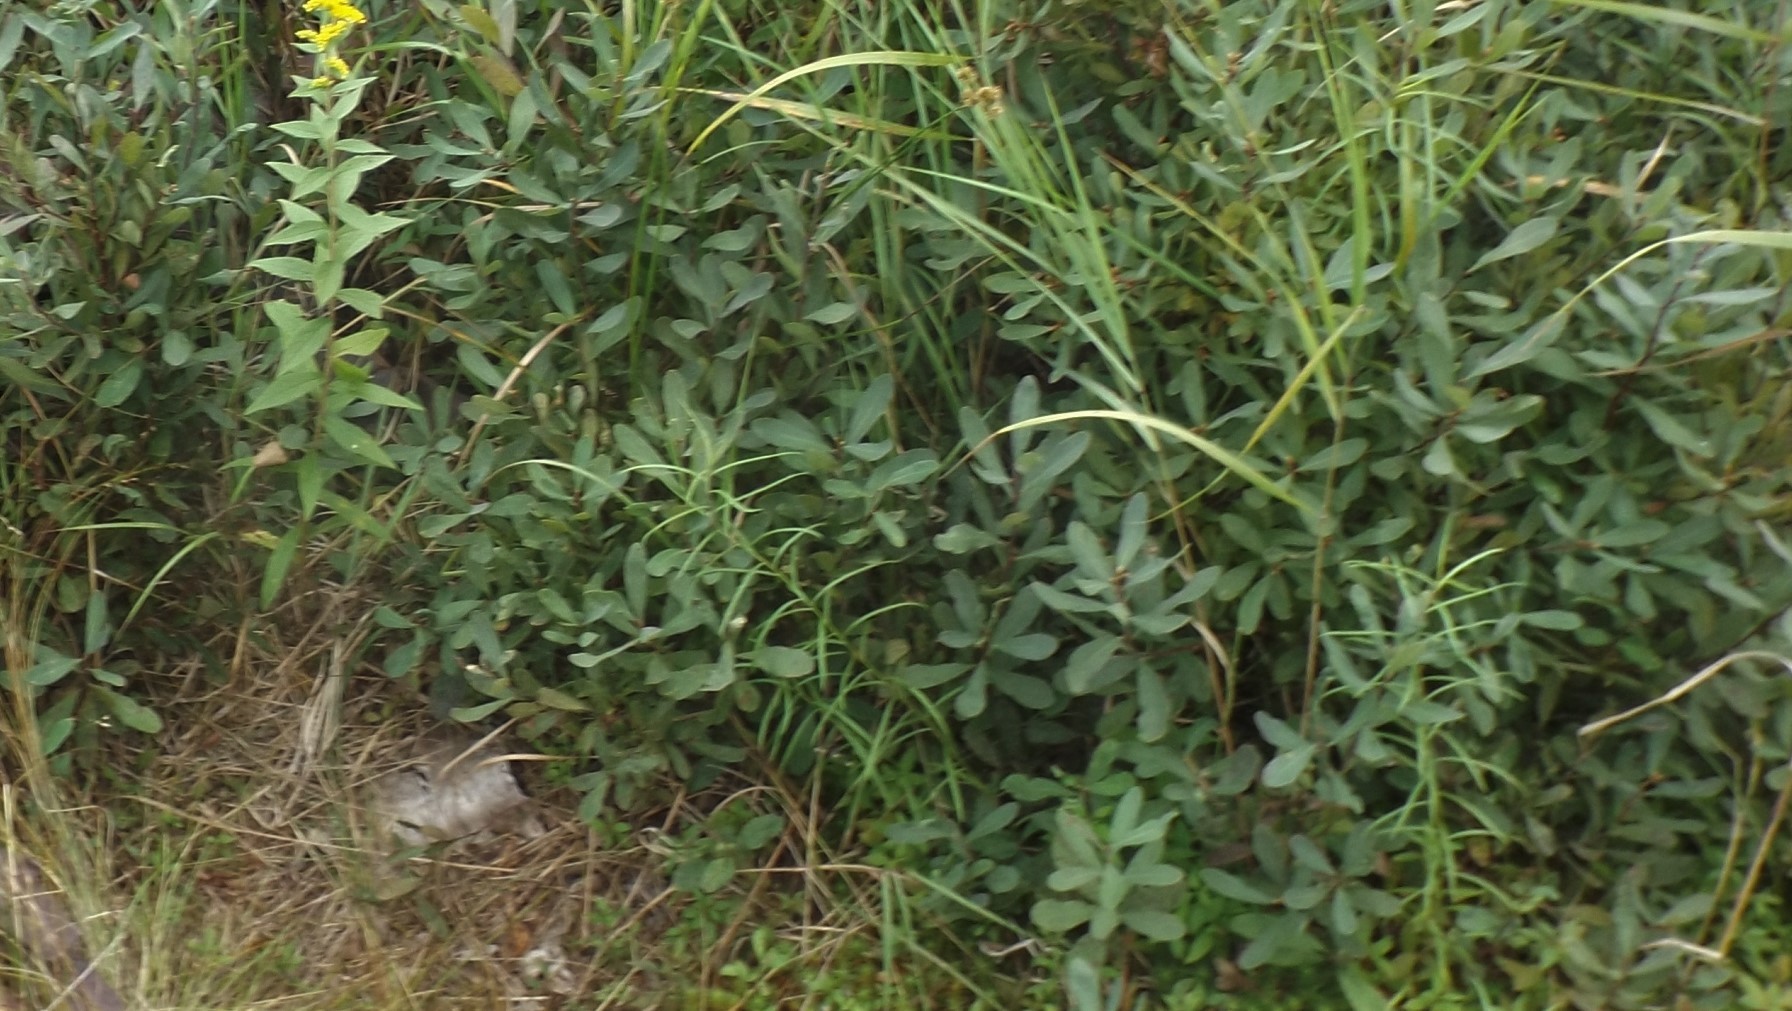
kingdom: Plantae
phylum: Tracheophyta
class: Magnoliopsida
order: Fagales
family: Myricaceae
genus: Myrica
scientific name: Myrica gale
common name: Sweet gale
